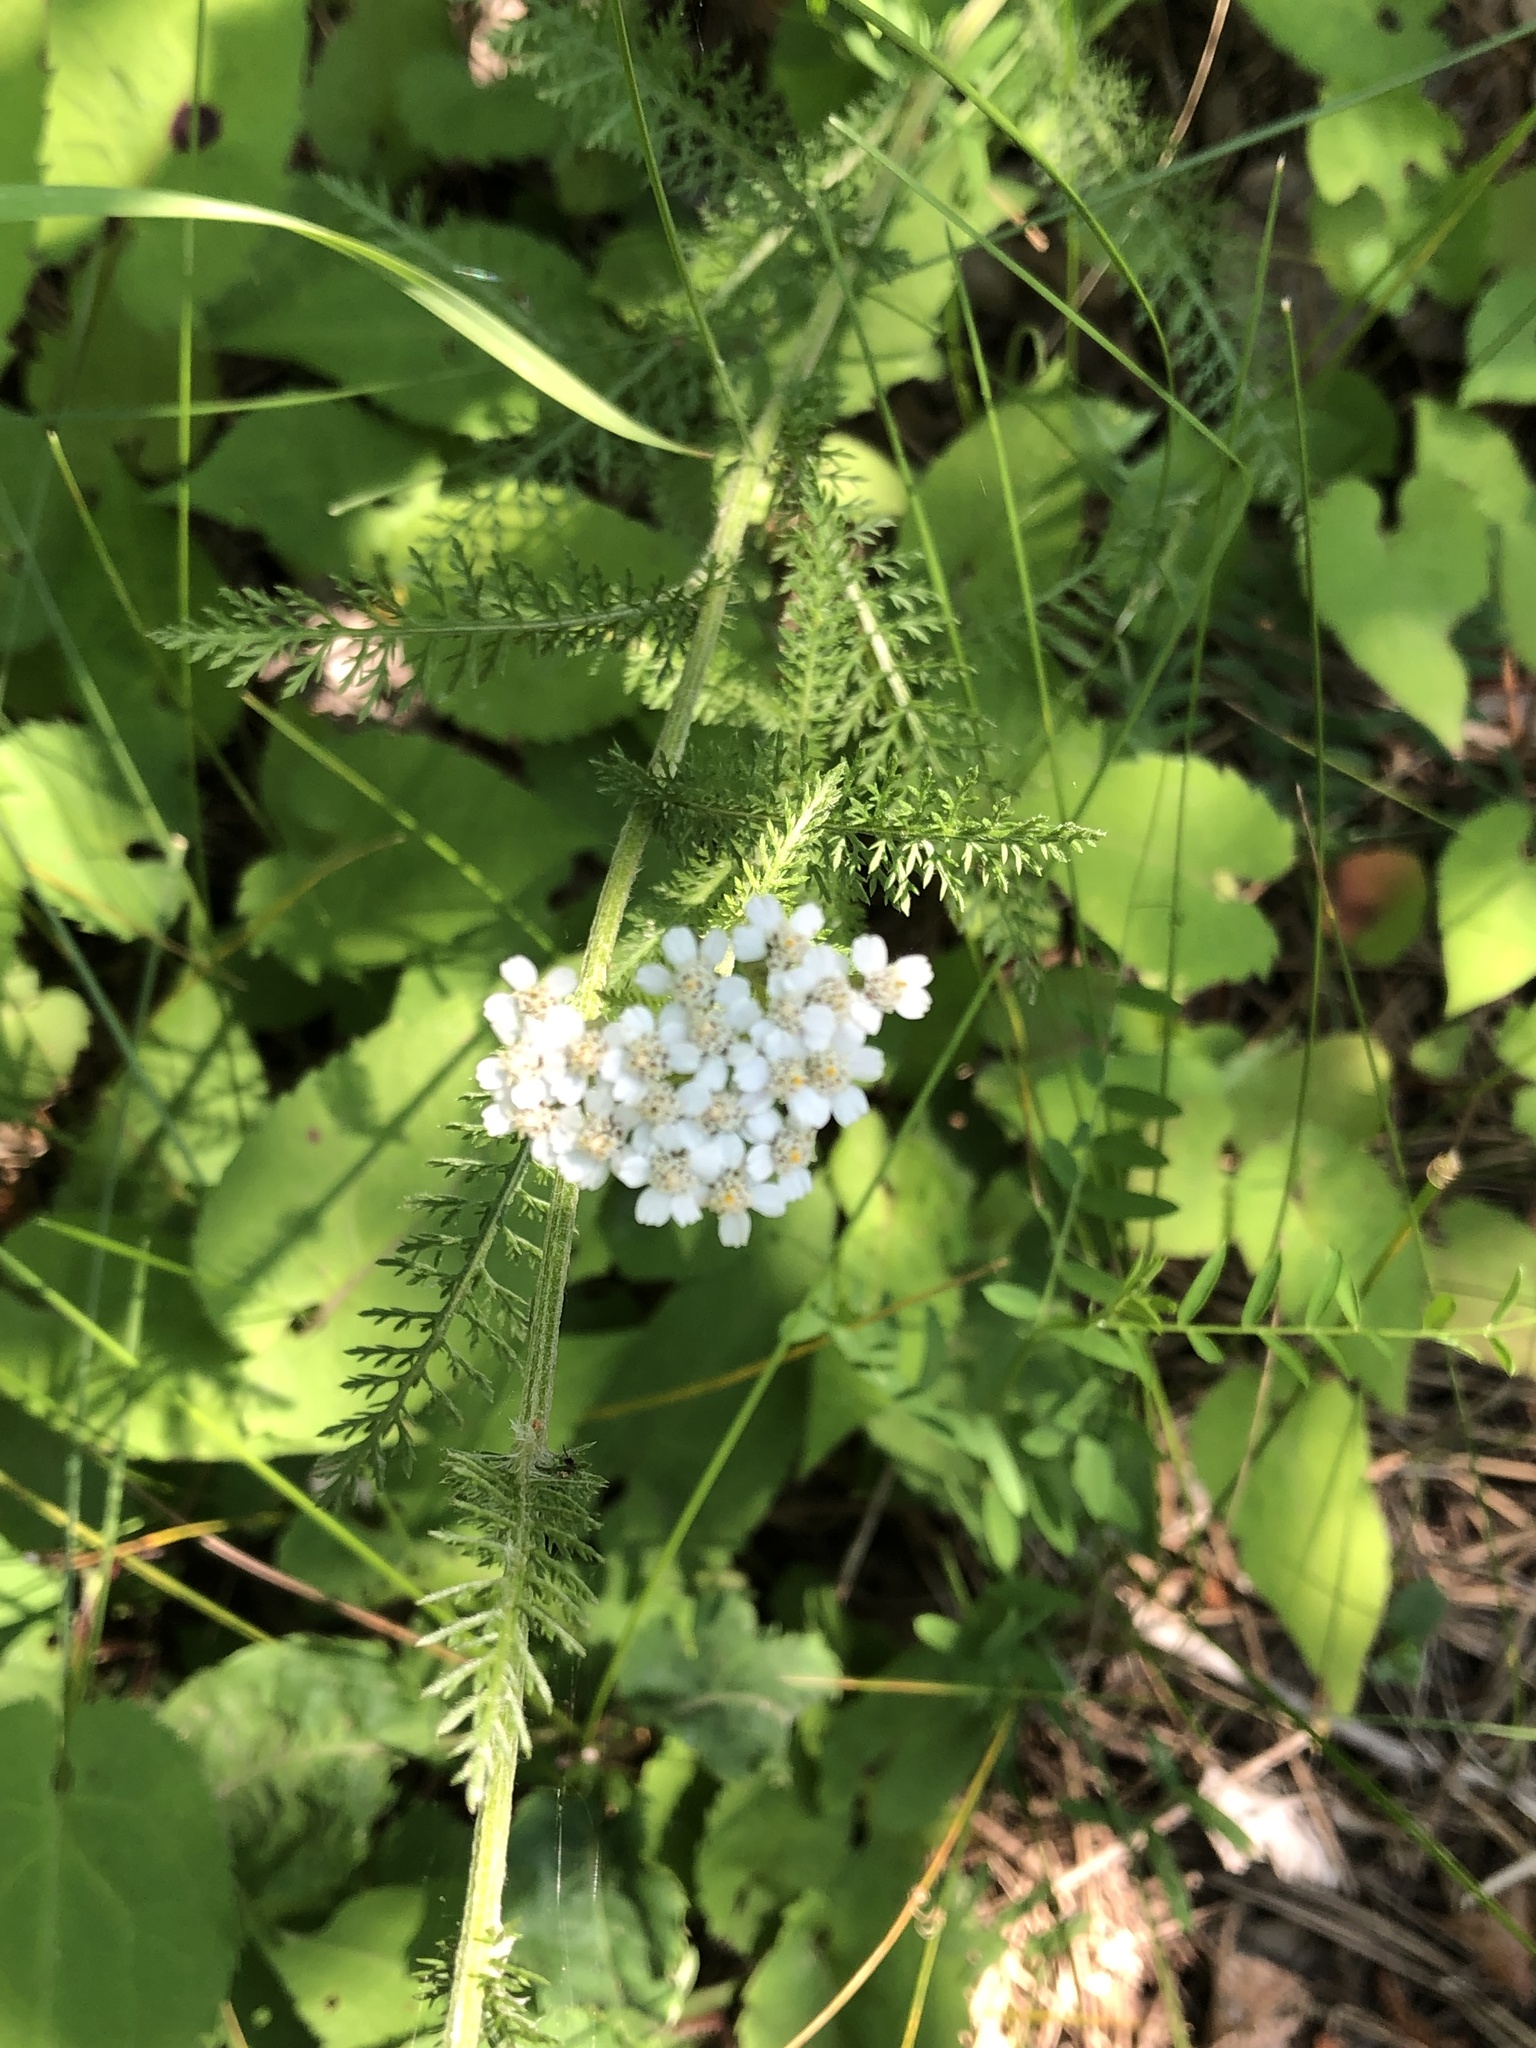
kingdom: Plantae
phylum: Tracheophyta
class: Magnoliopsida
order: Asterales
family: Asteraceae
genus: Achillea
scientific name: Achillea millefolium
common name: Yarrow
